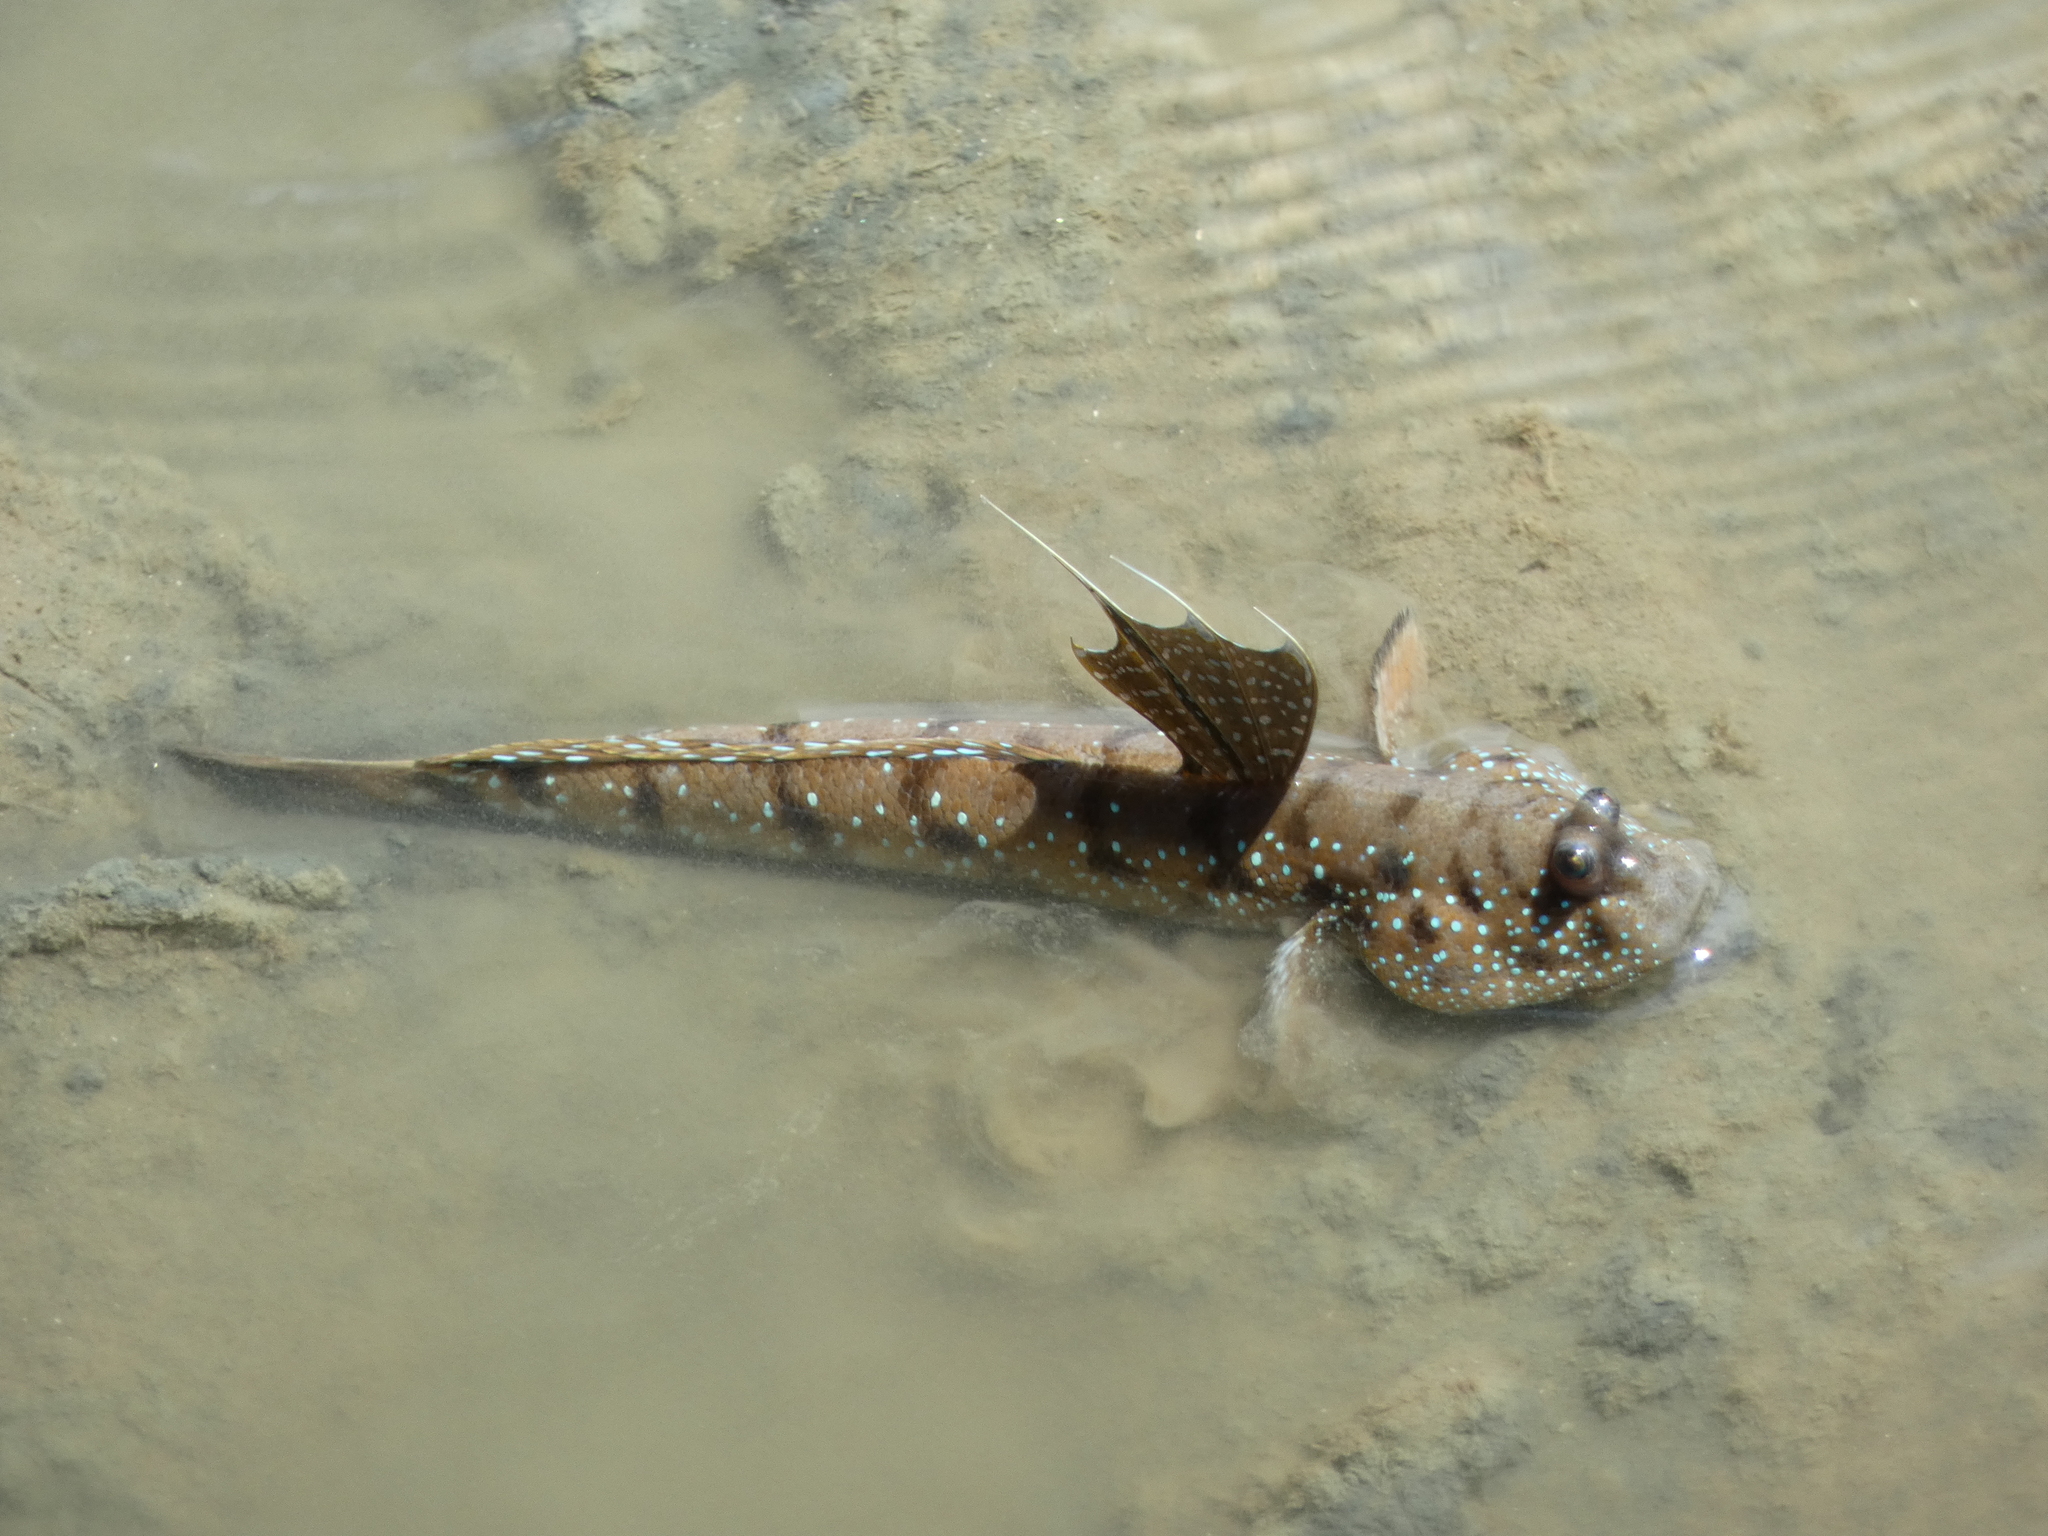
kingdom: Animalia
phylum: Chordata
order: Perciformes
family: Gobiidae
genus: Boleophthalmus
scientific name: Boleophthalmus boddarti
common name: Boddart's goggle-eyed goby
